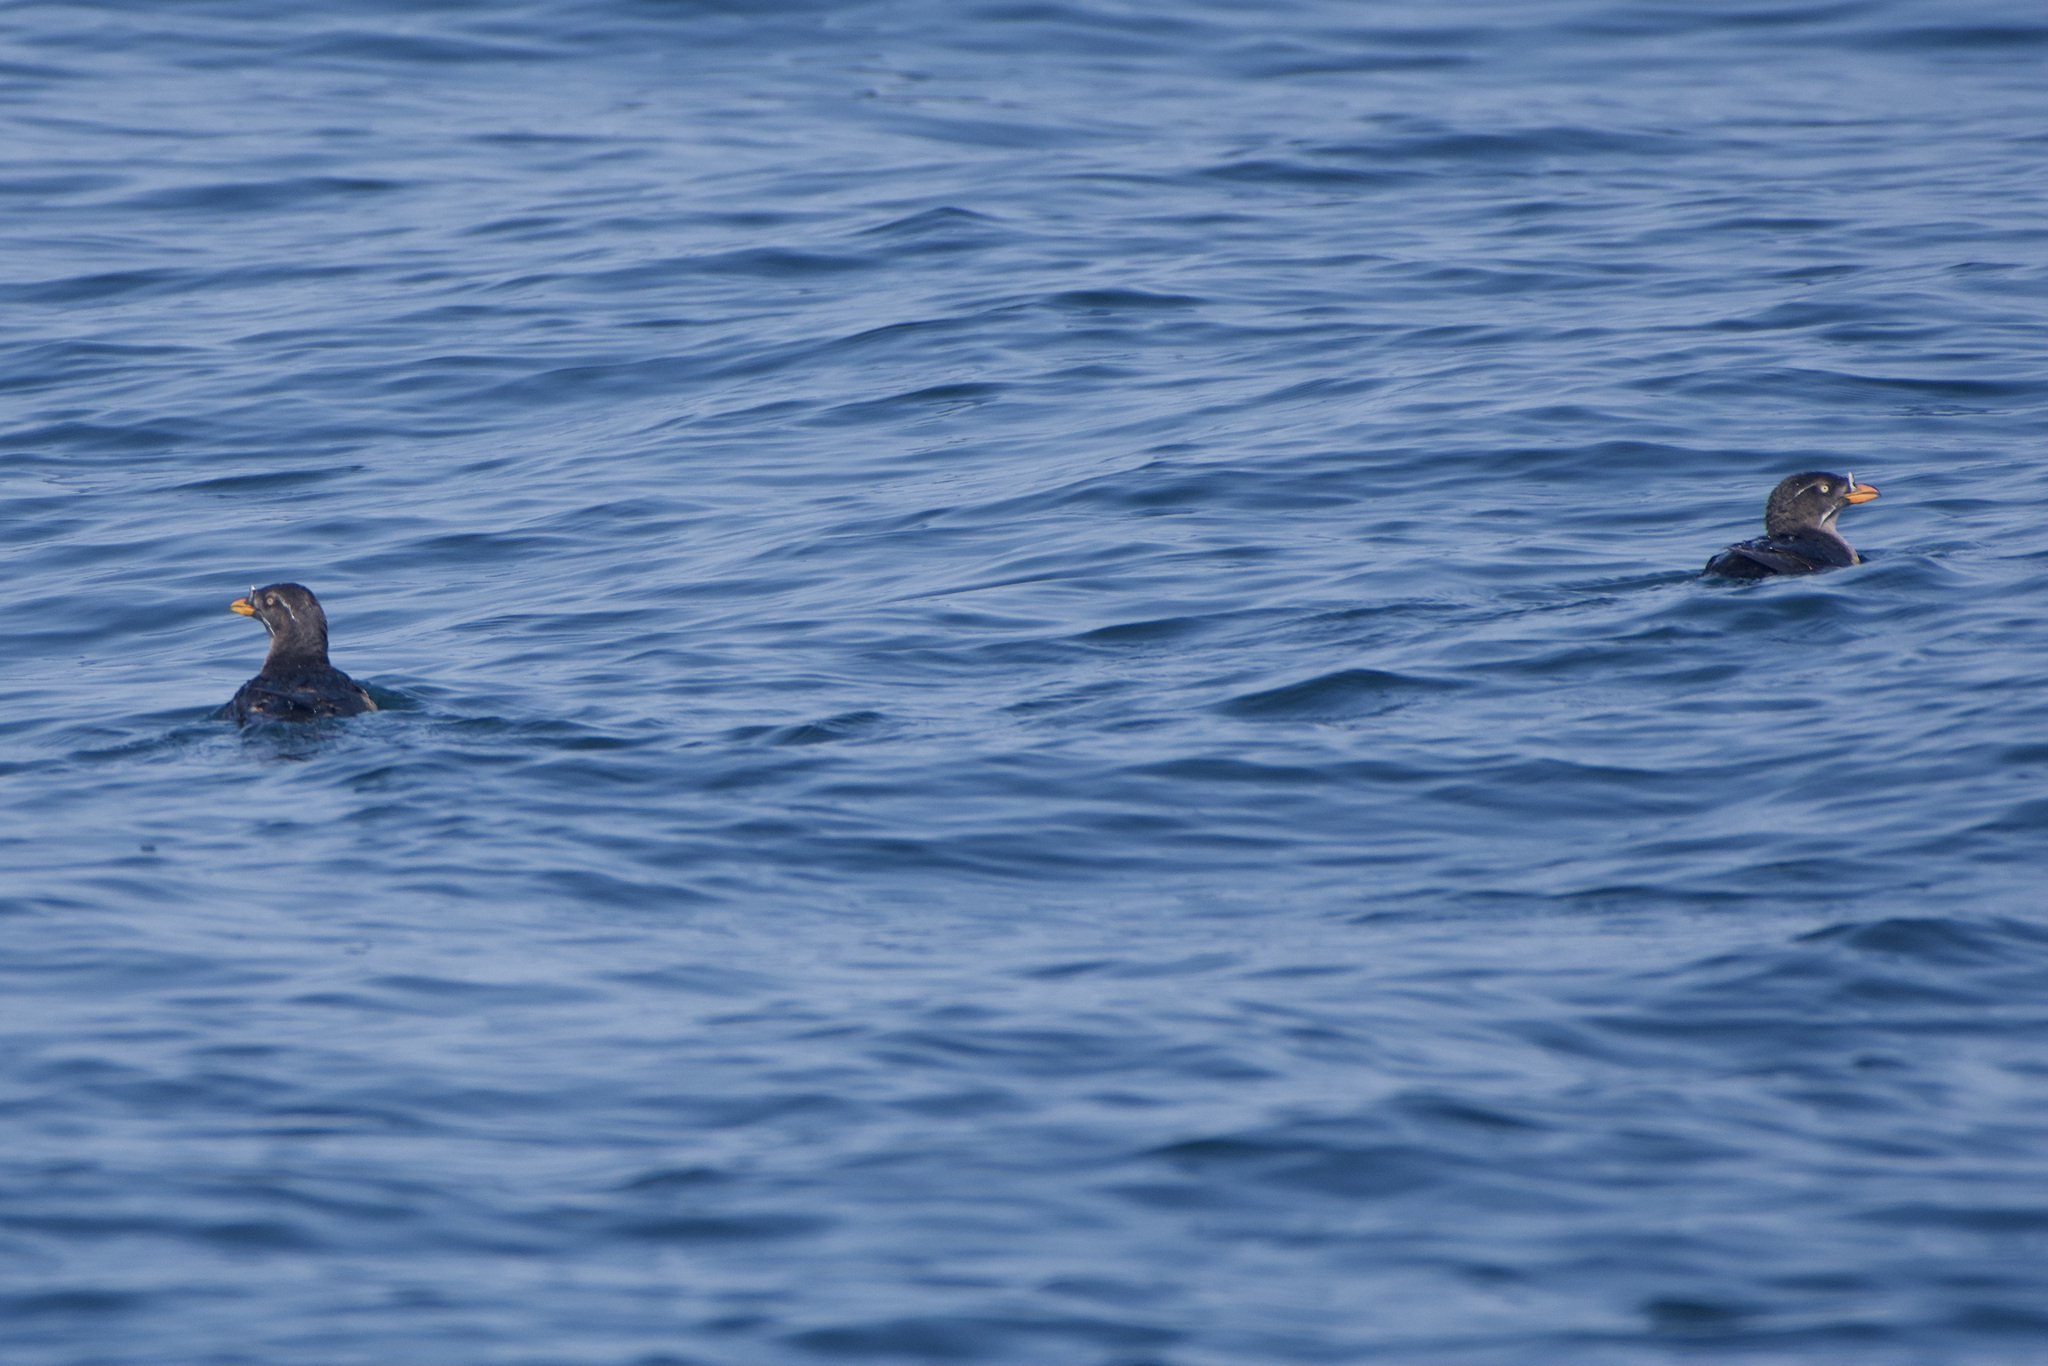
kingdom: Animalia
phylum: Chordata
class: Aves
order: Charadriiformes
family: Alcidae
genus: Cerorhinca
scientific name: Cerorhinca monocerata
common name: Rhinoceros auklet
